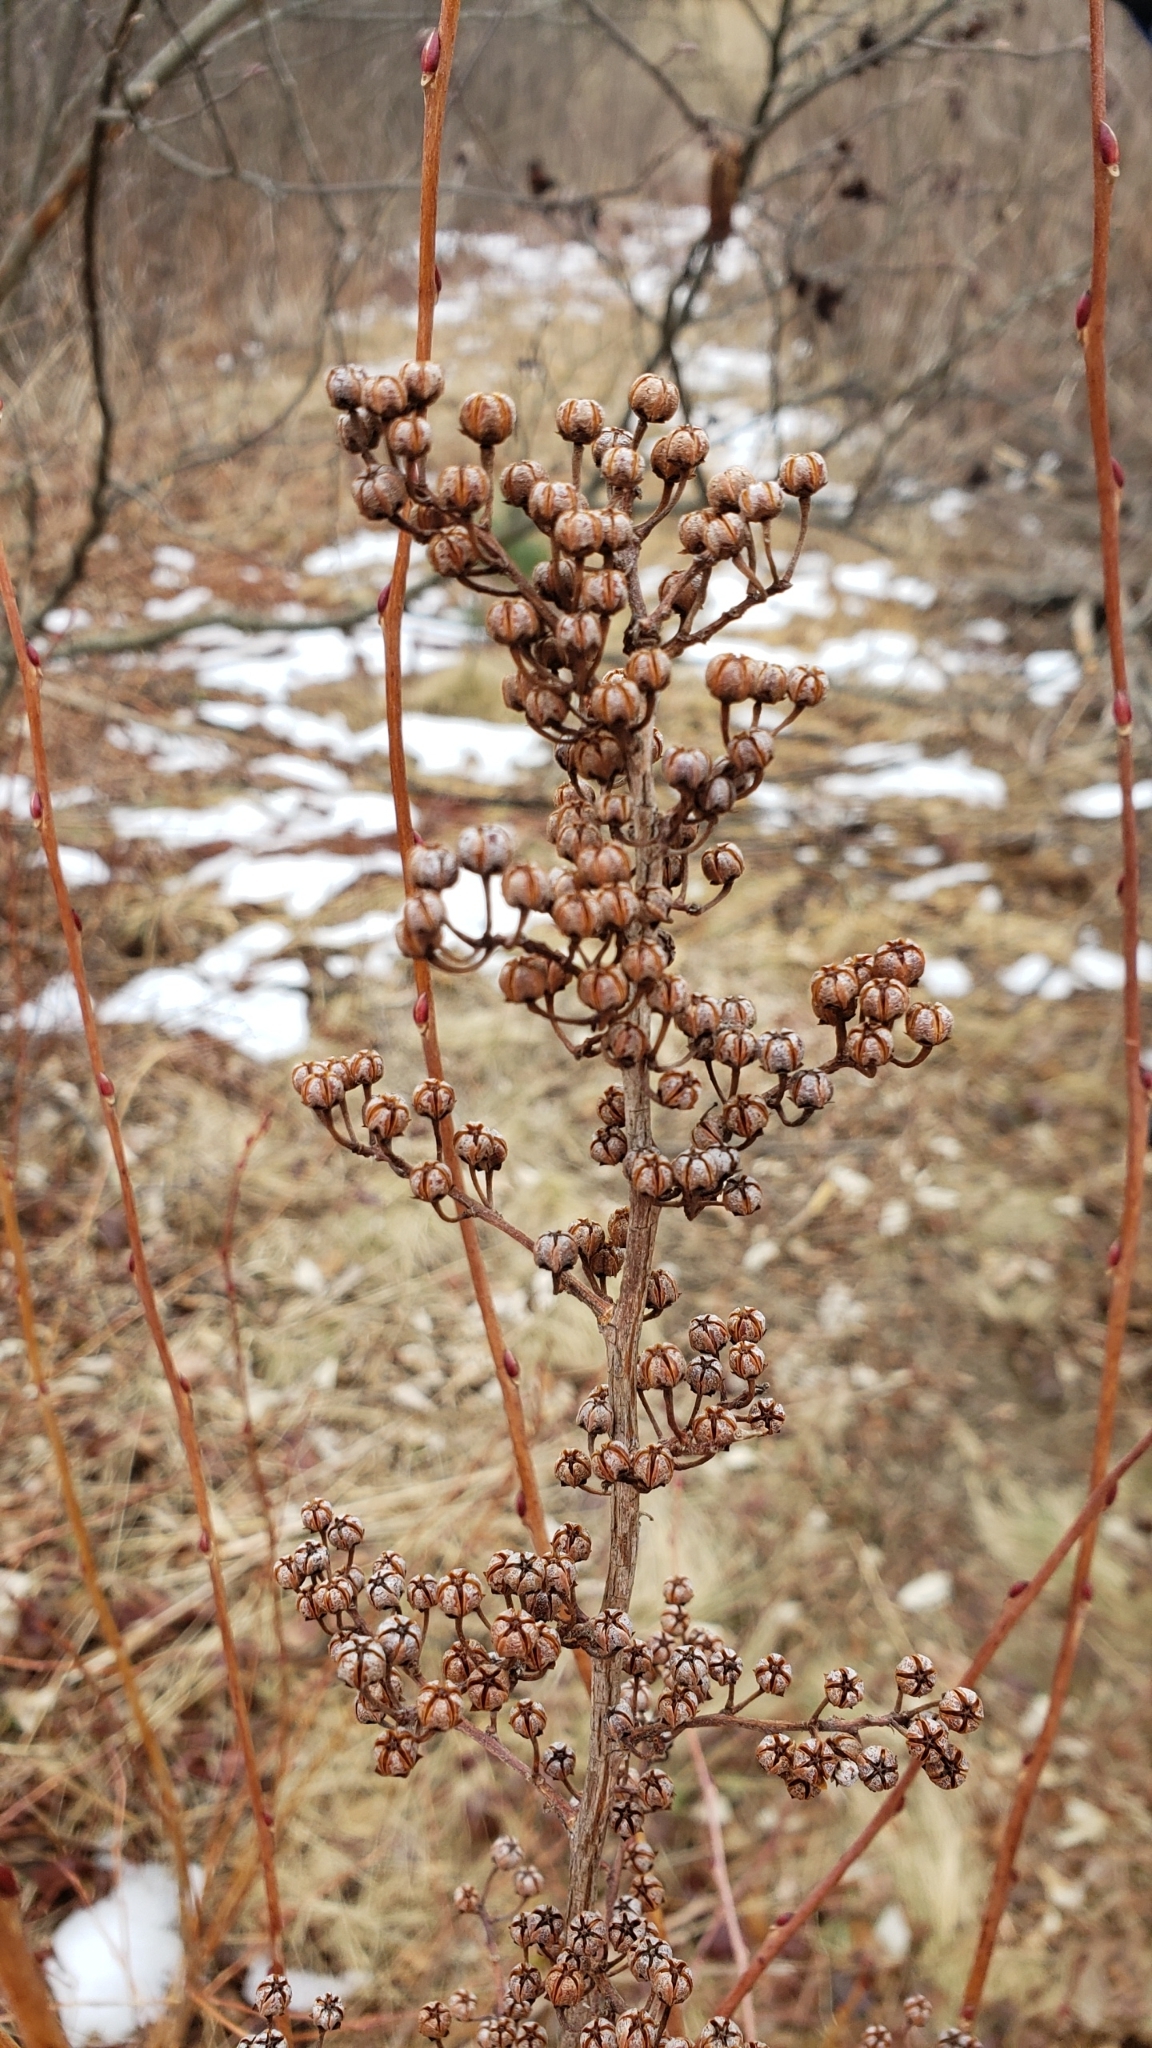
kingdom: Plantae
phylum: Tracheophyta
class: Magnoliopsida
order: Ericales
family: Ericaceae
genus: Lyonia
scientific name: Lyonia ligustrina
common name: Maleberry
